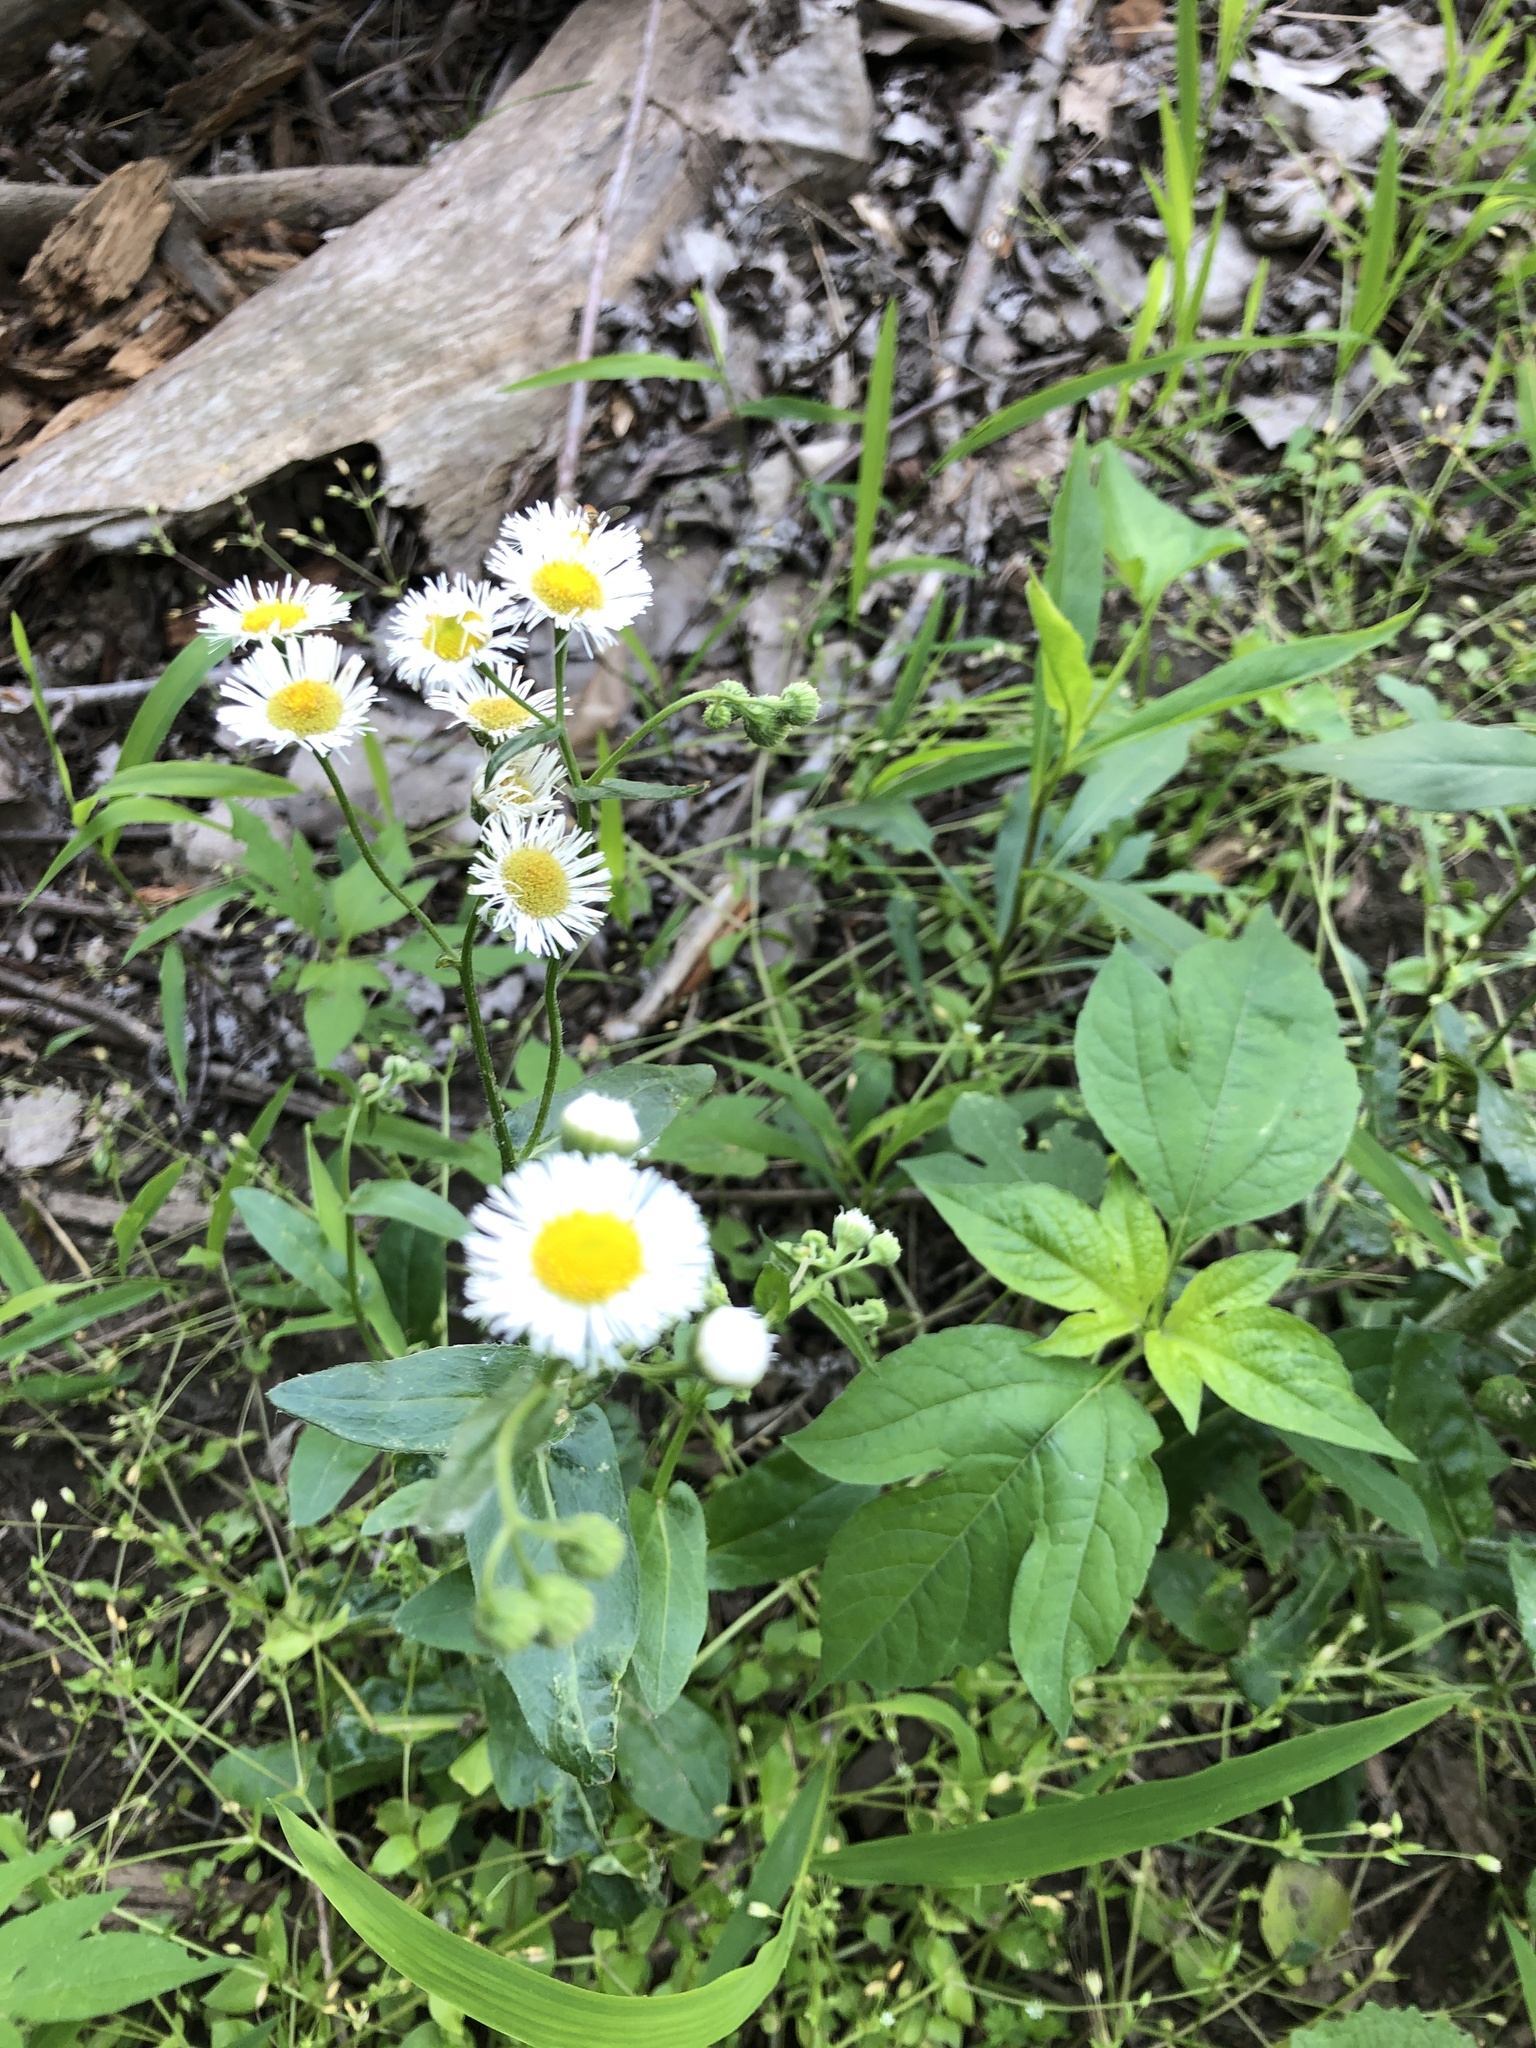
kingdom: Plantae
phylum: Tracheophyta
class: Magnoliopsida
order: Asterales
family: Asteraceae
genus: Erigeron
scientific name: Erigeron philadelphicus
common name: Robin's-plantain
